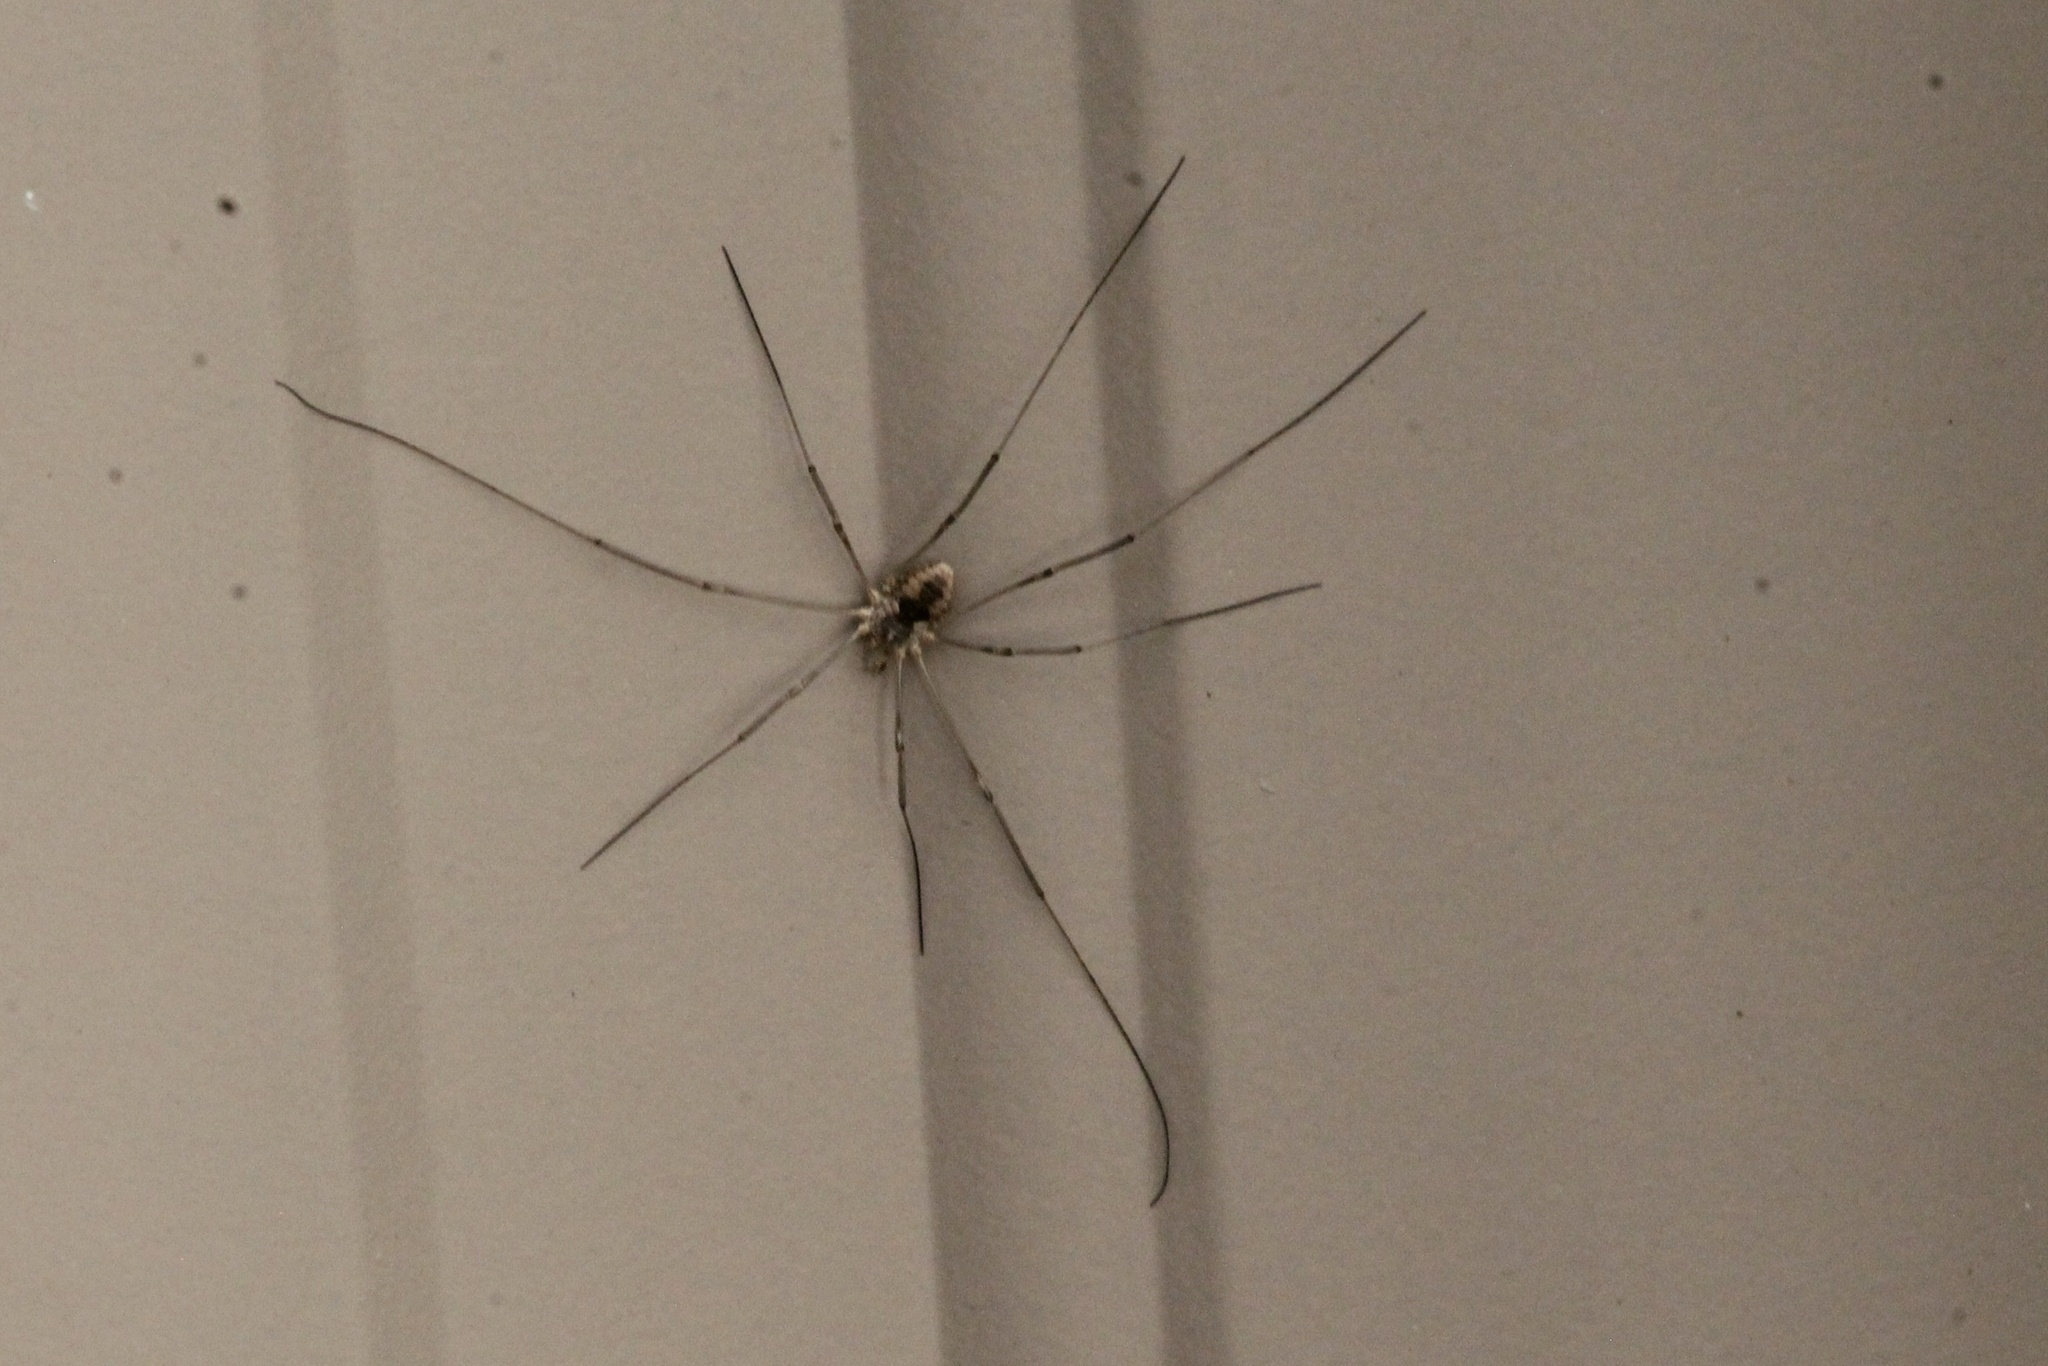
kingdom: Animalia
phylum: Arthropoda
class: Arachnida
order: Opiliones
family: Phalangiidae
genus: Phalangium
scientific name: Phalangium opilio
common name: Daddy longleg
